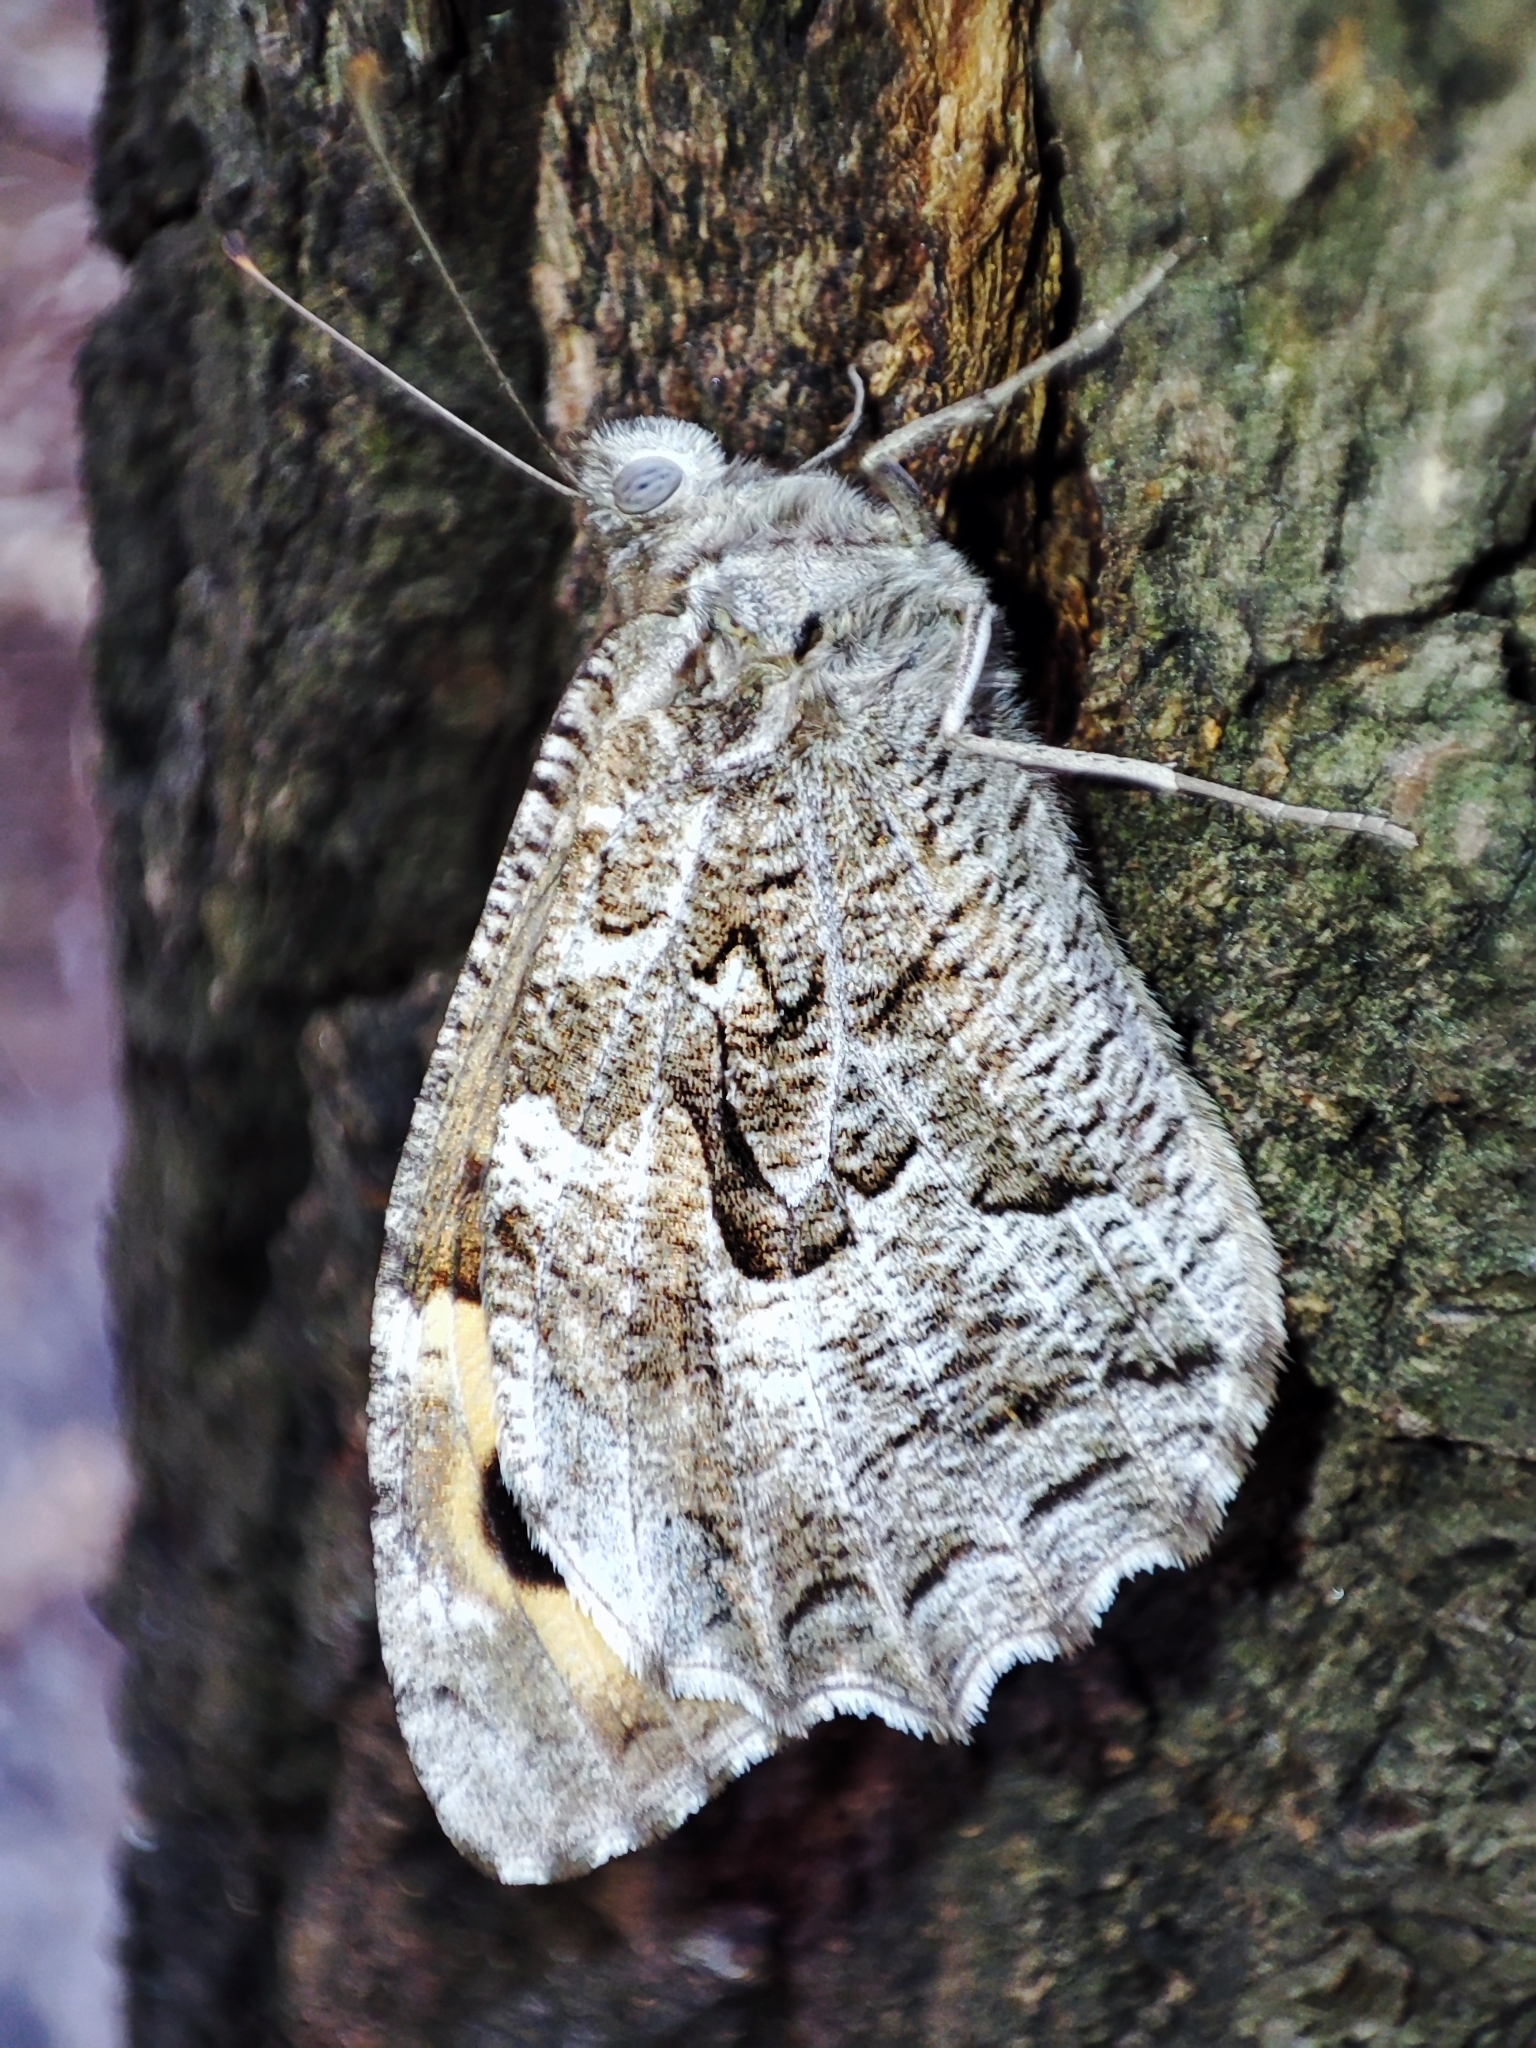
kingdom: Animalia
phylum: Arthropoda
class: Insecta
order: Lepidoptera
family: Nymphalidae
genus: Hipparchia
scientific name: Hipparchia semele
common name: Grayling
